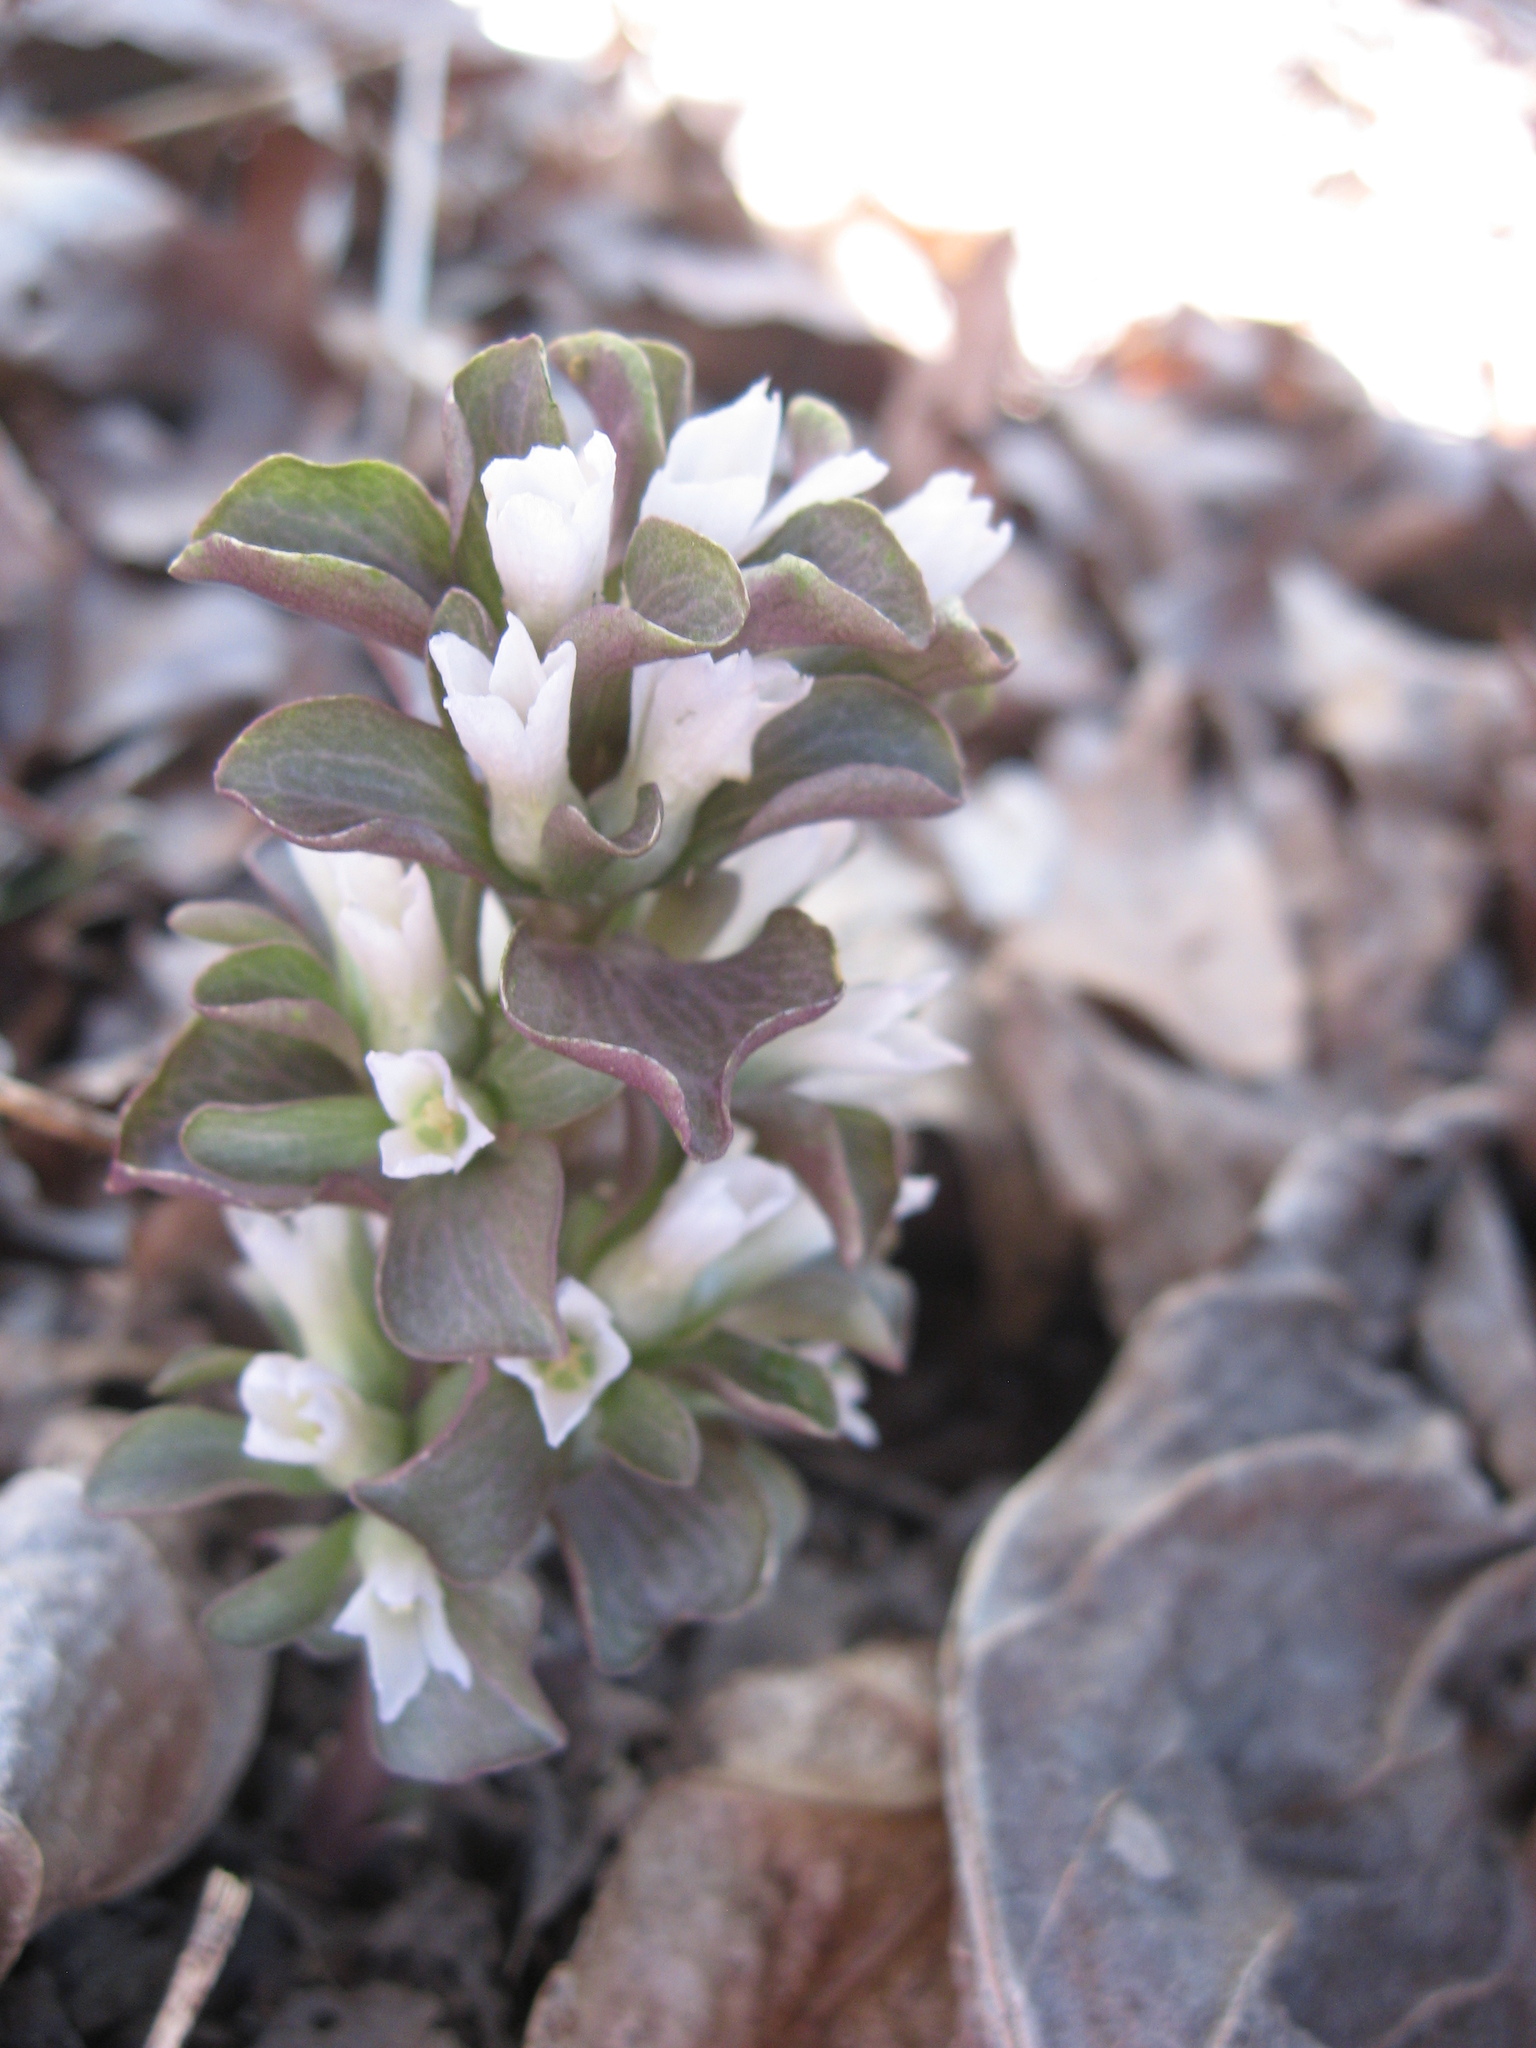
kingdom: Plantae
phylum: Tracheophyta
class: Magnoliopsida
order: Gentianales
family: Gentianaceae
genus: Obolaria
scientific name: Obolaria virginica
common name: Pennywort
